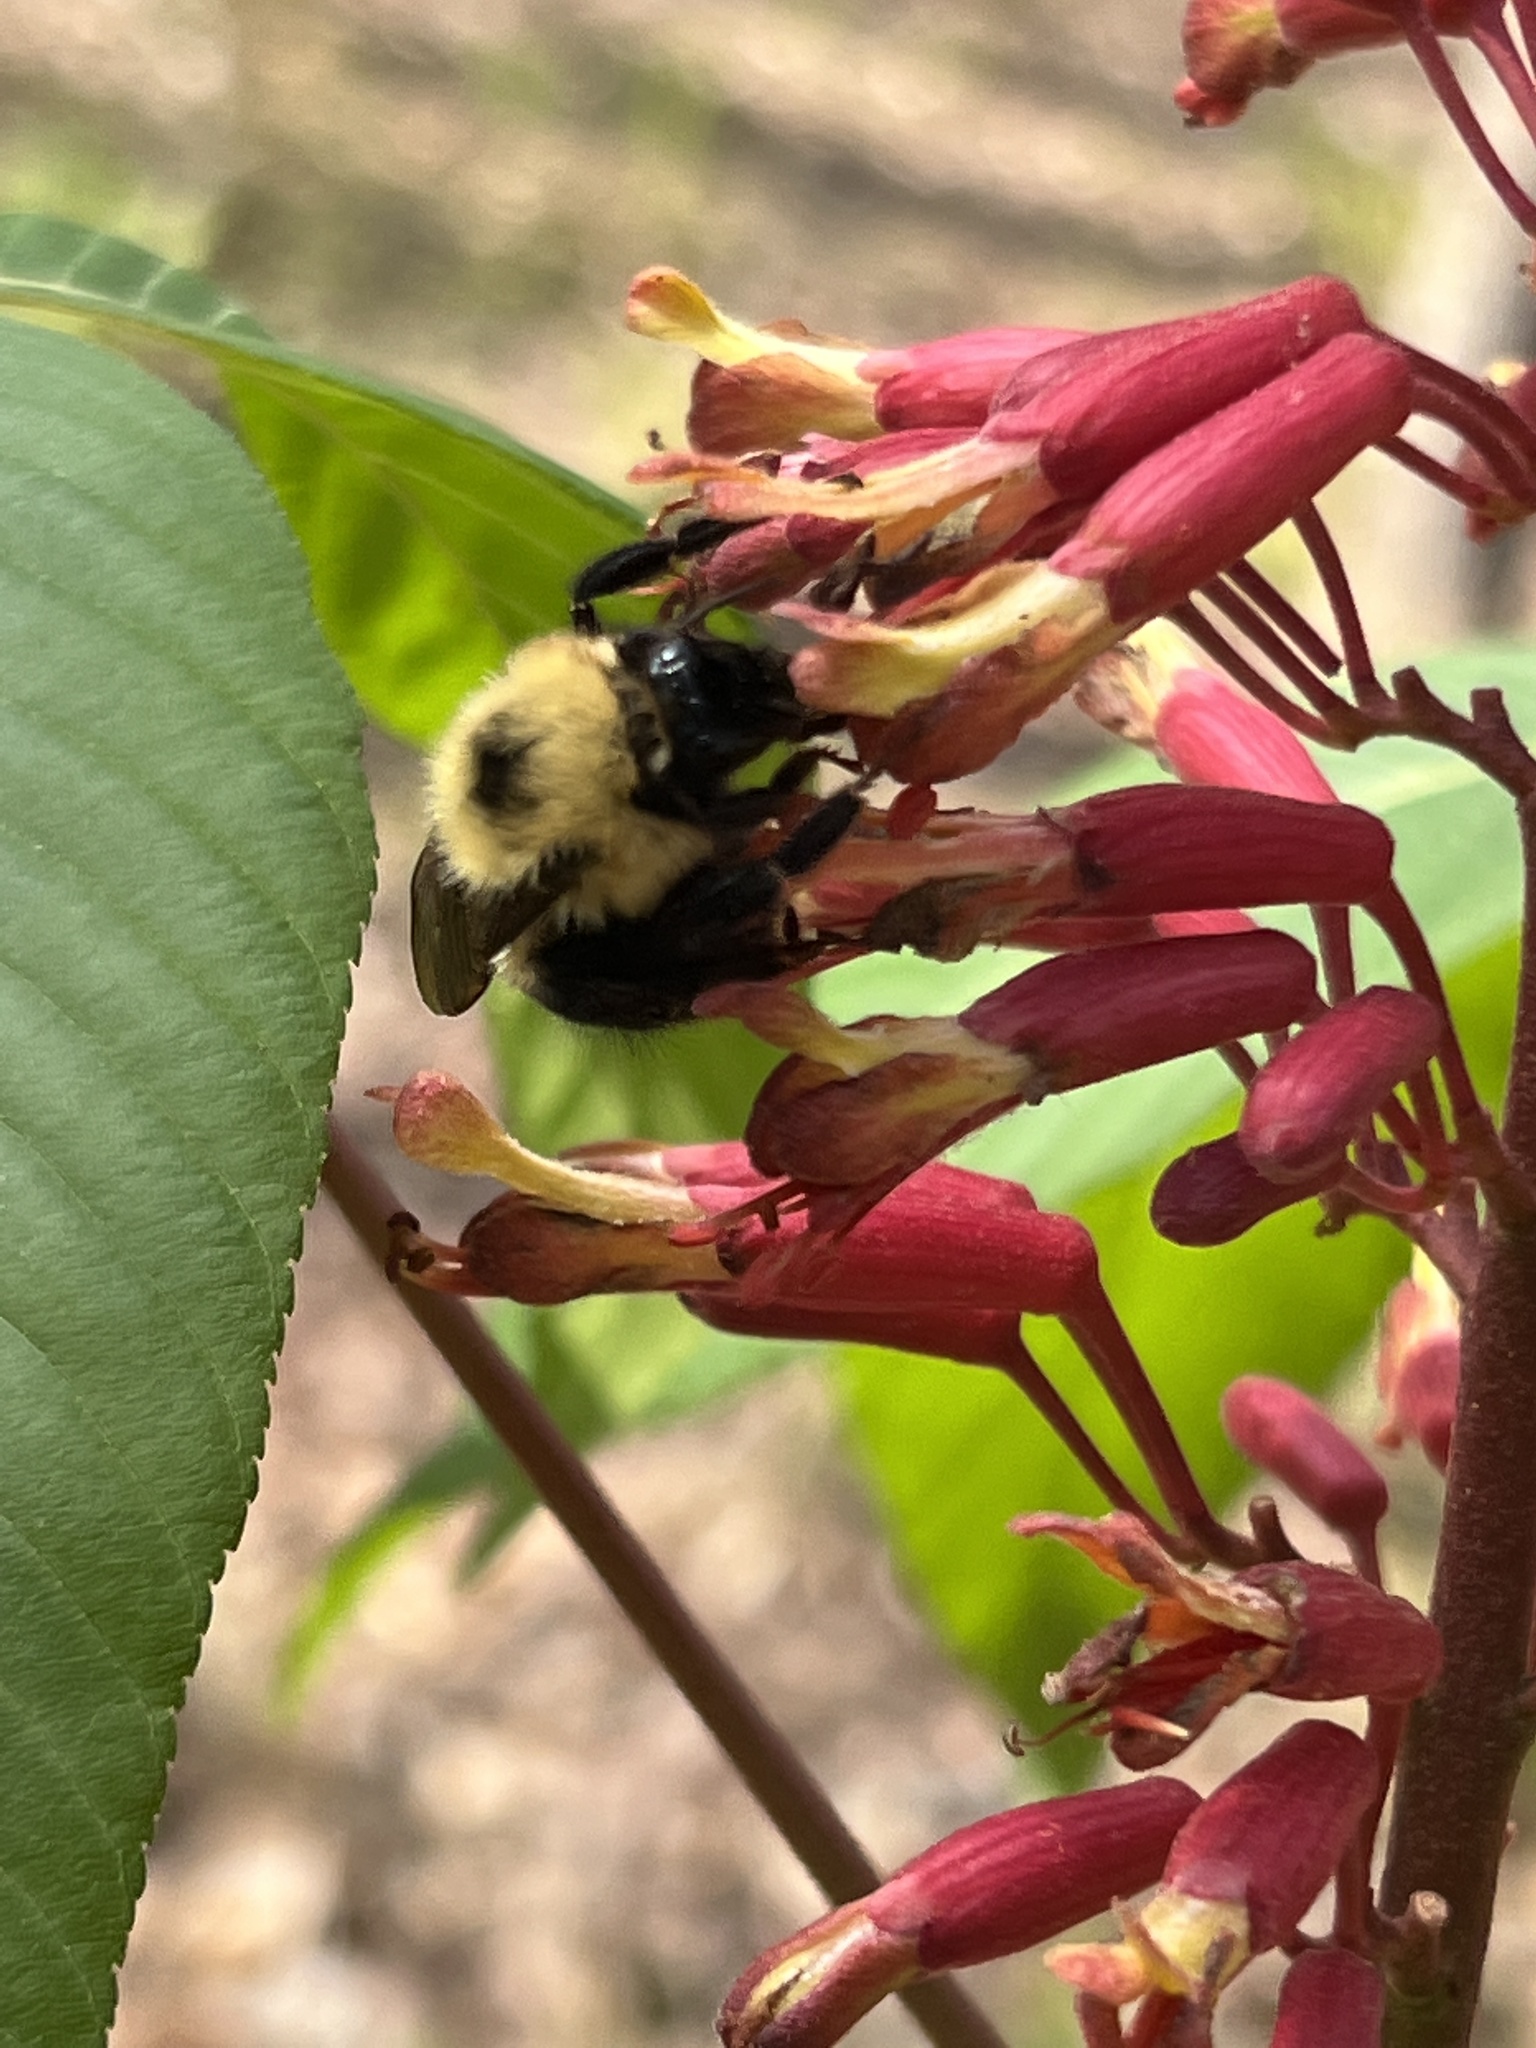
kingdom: Animalia
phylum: Arthropoda
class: Insecta
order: Hymenoptera
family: Apidae
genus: Bombus
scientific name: Bombus bimaculatus
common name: Two-spotted bumble bee
